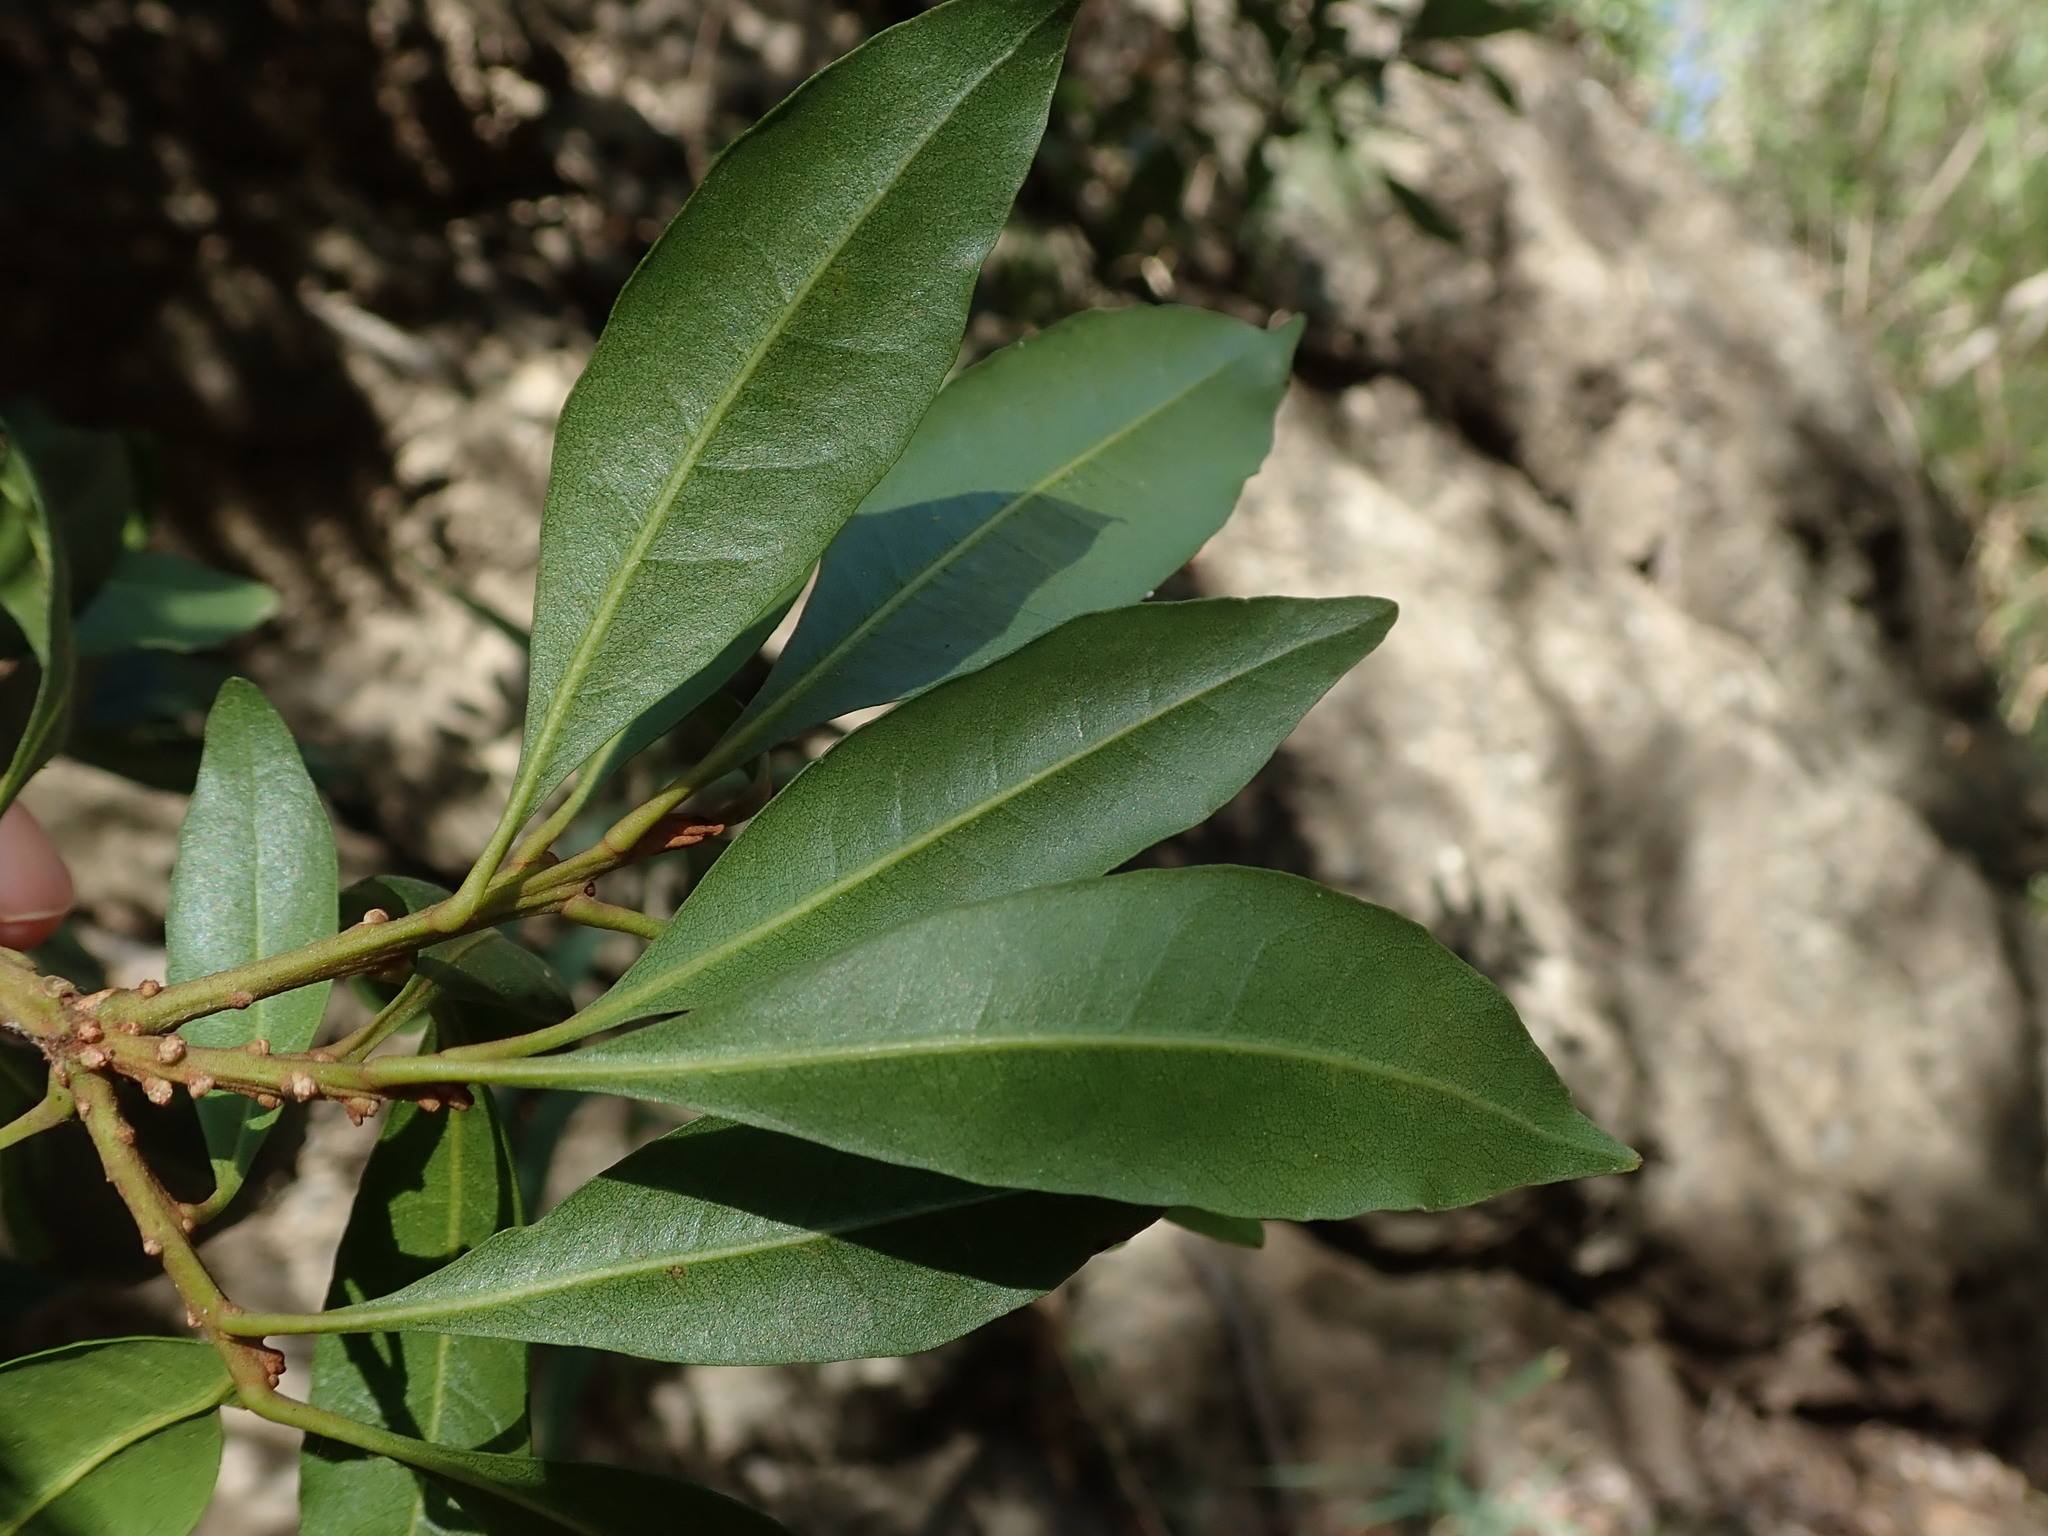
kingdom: Plantae
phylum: Tracheophyta
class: Magnoliopsida
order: Fagales
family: Myricaceae
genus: Morella
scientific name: Morella faya
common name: Firetree
